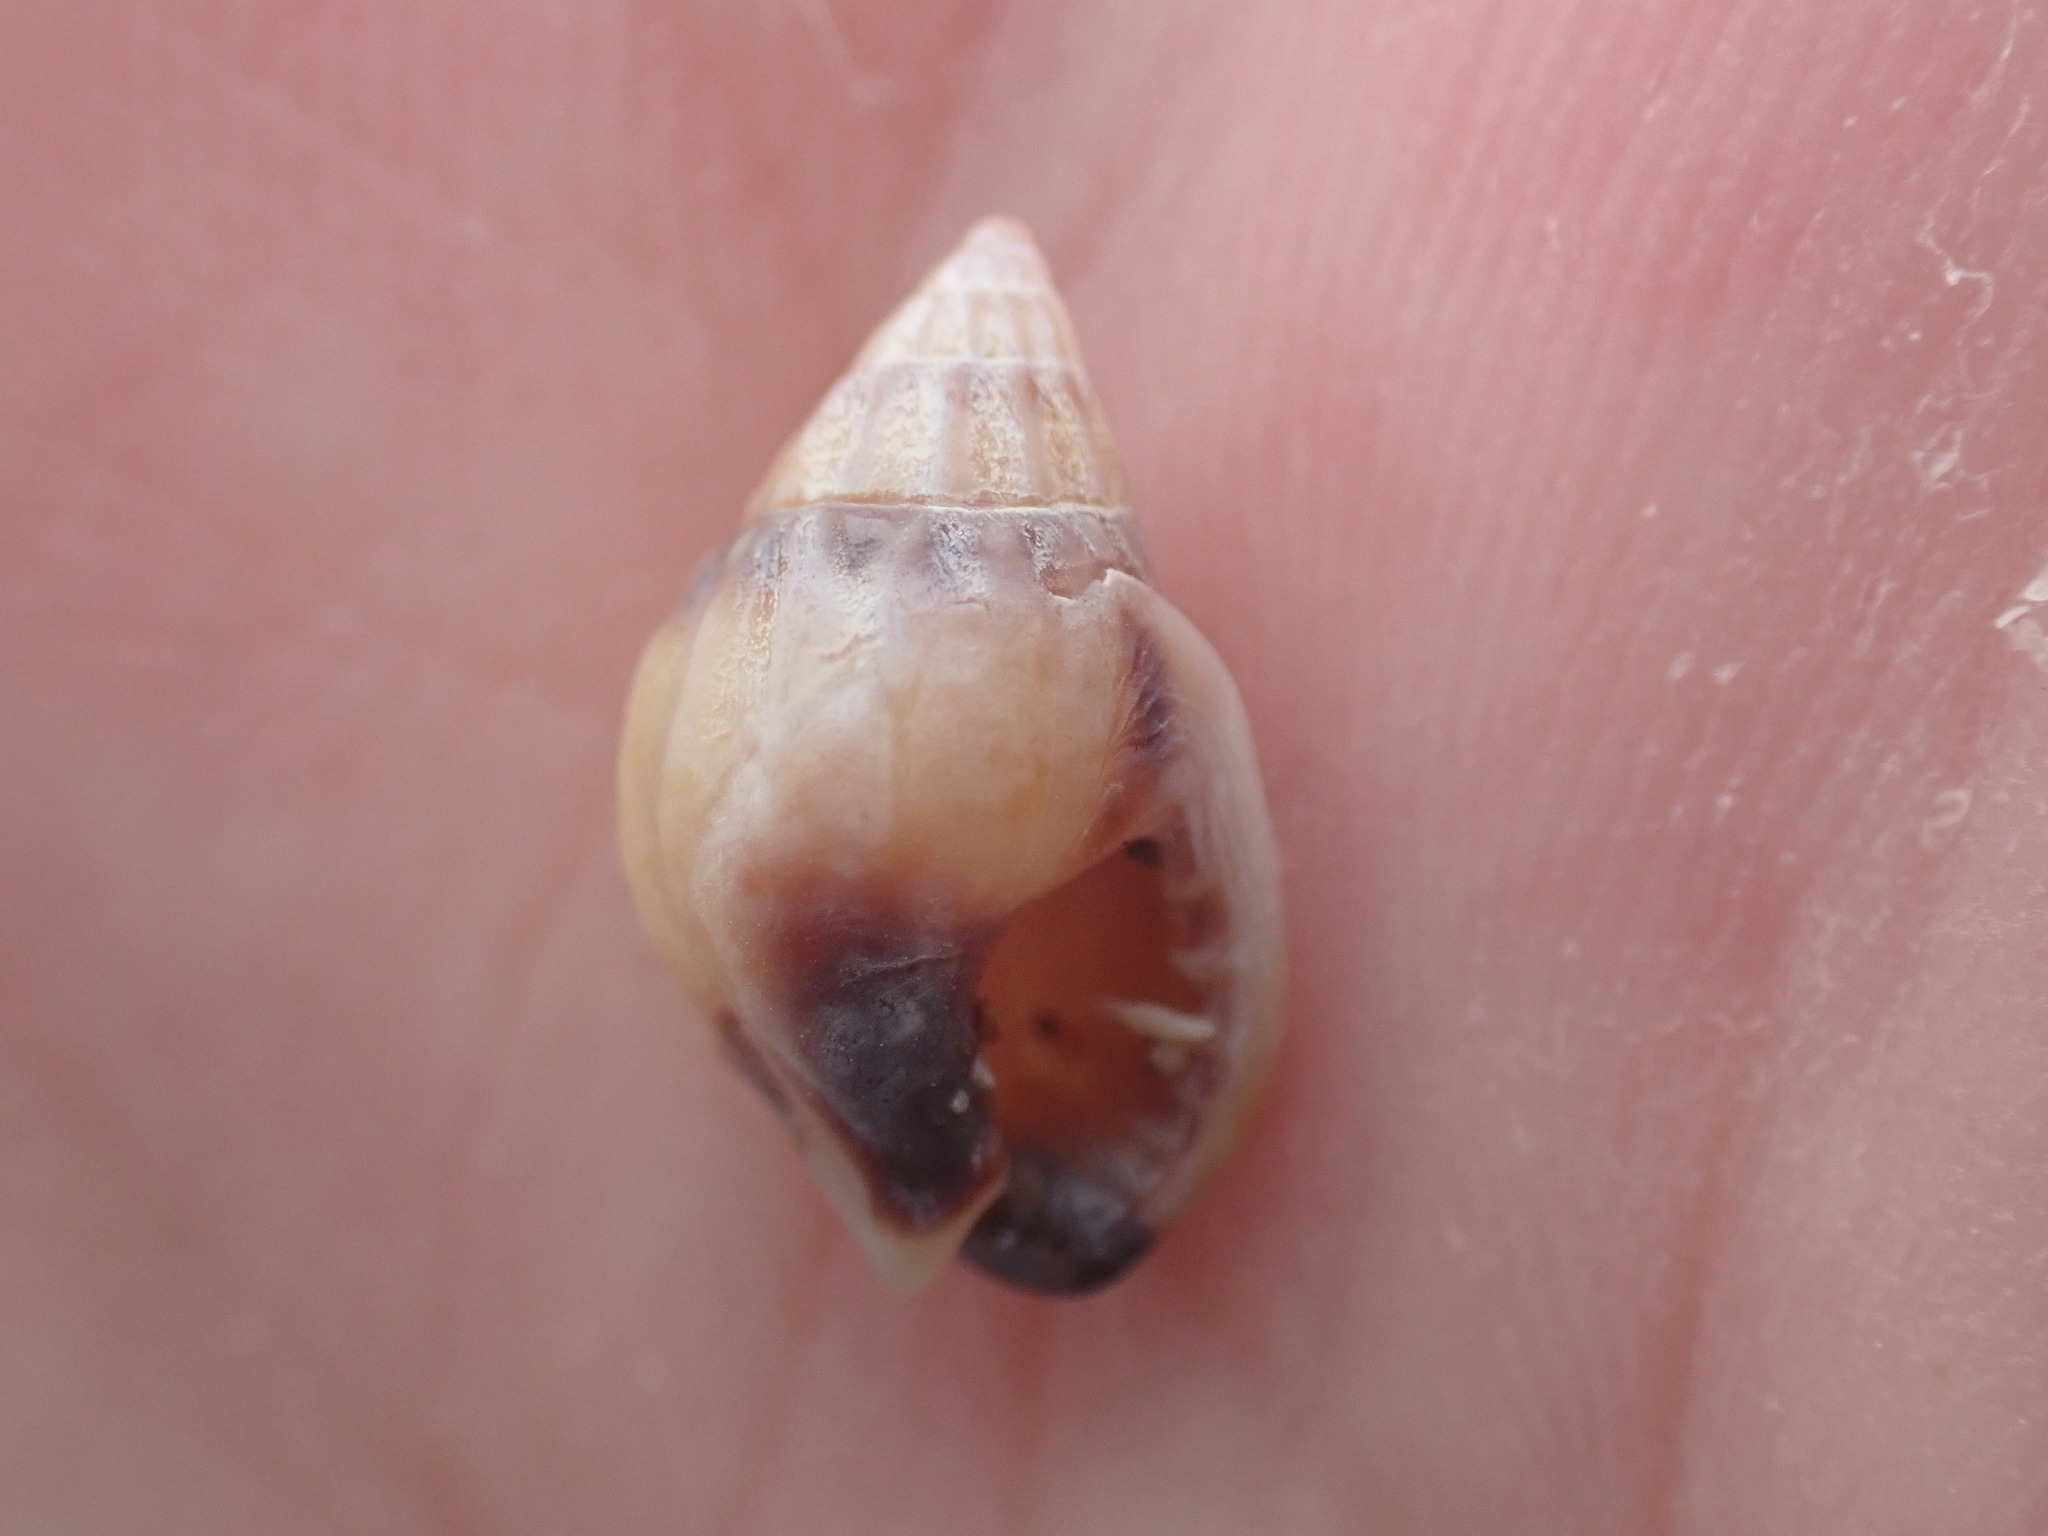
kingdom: Animalia
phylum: Mollusca
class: Gastropoda
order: Neogastropoda
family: Nassariidae
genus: Tritia
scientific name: Tritia burchardi
